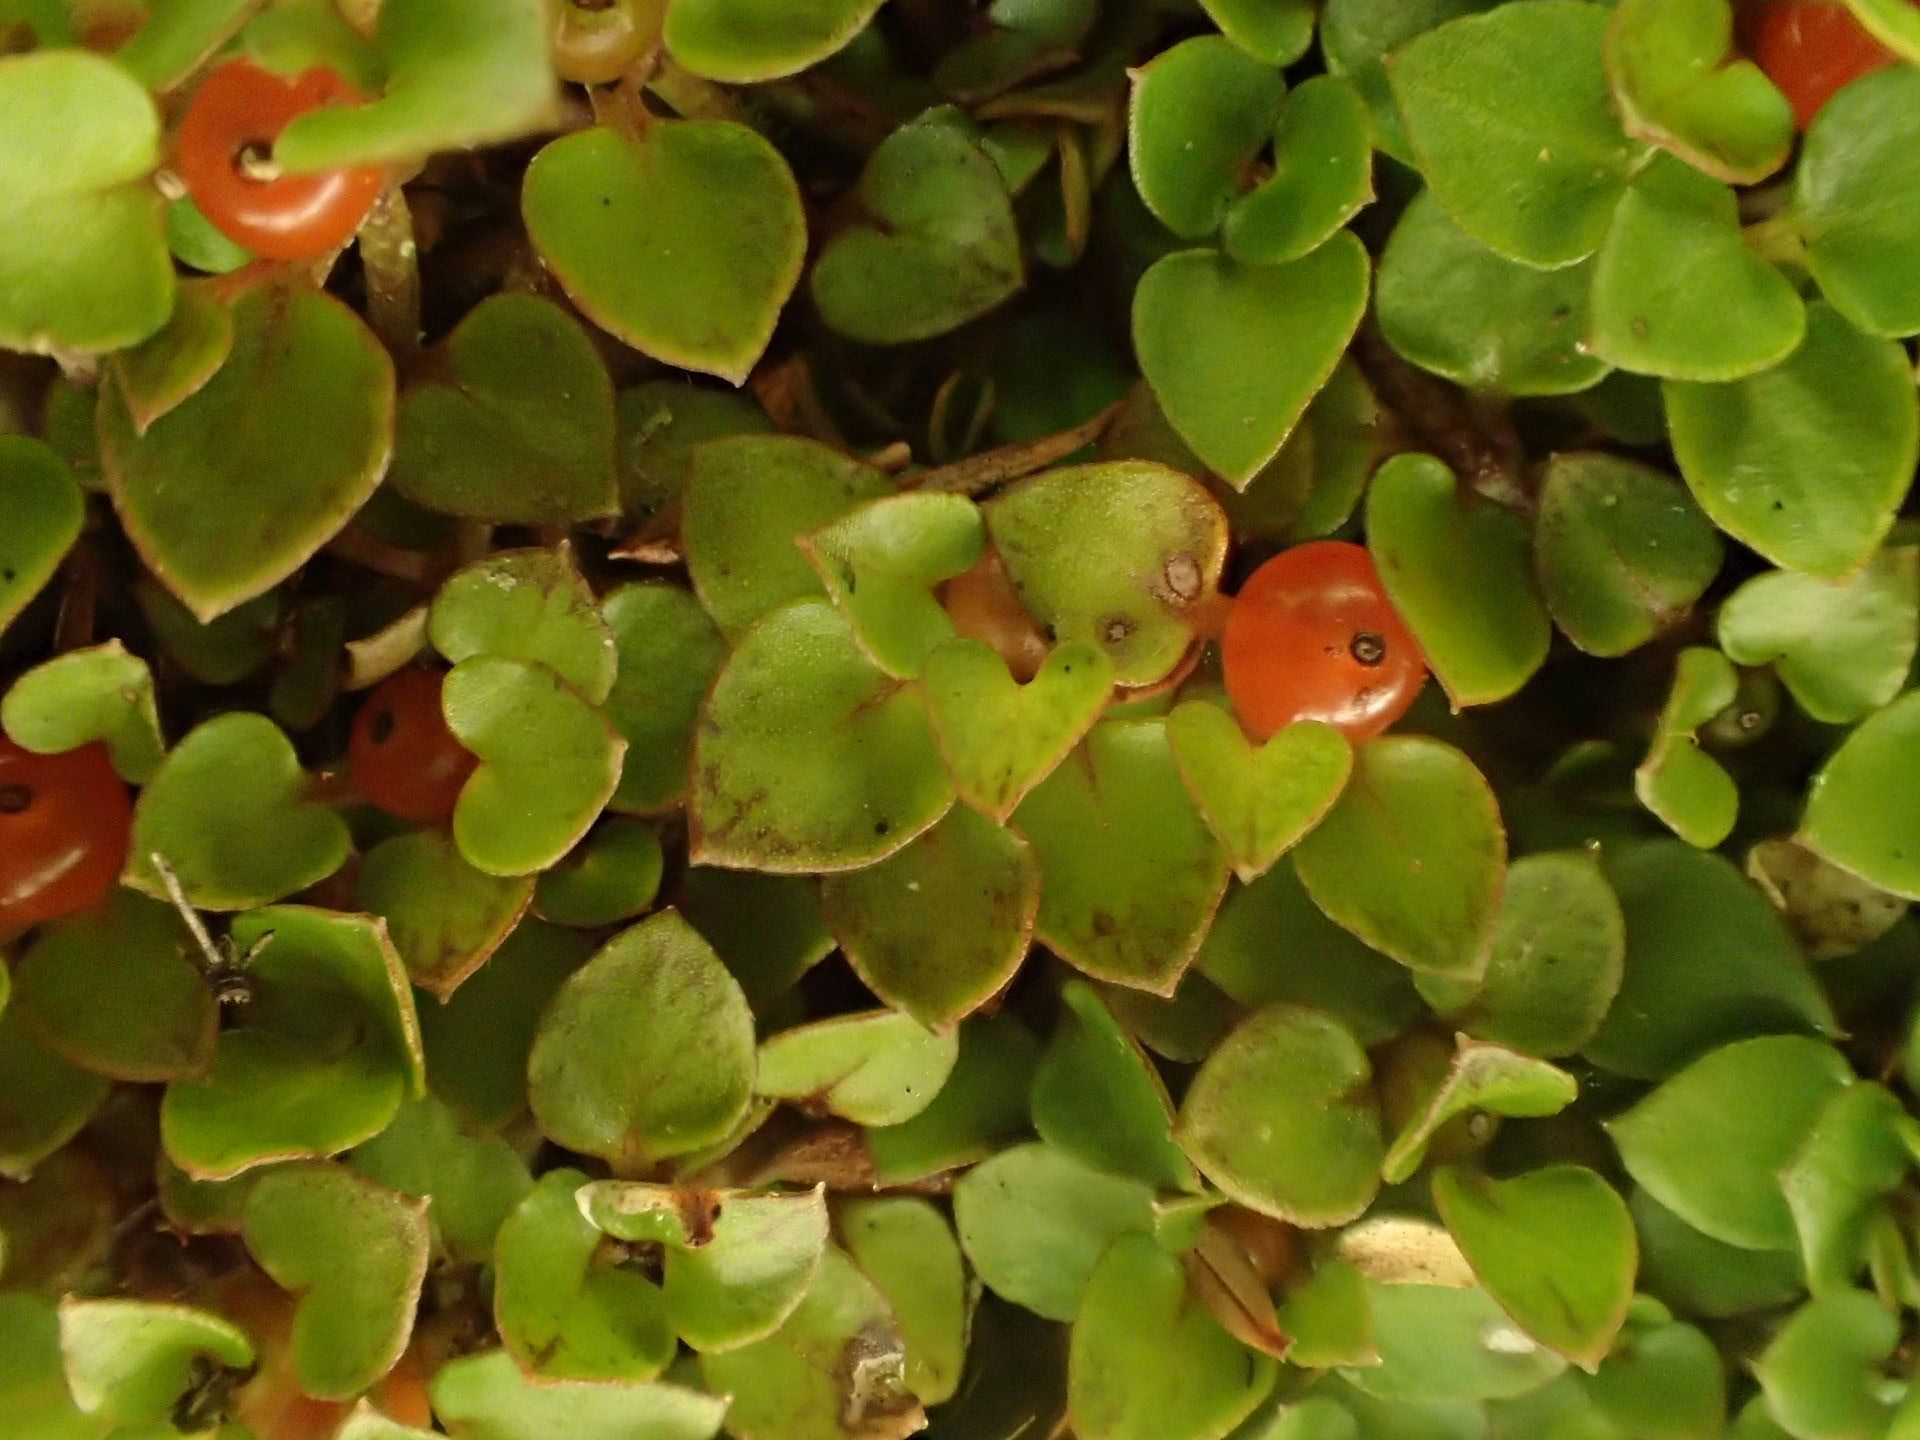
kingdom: Plantae
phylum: Tracheophyta
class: Magnoliopsida
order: Gentianales
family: Rubiaceae
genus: Nertera
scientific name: Nertera granadensis
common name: Beadplant
